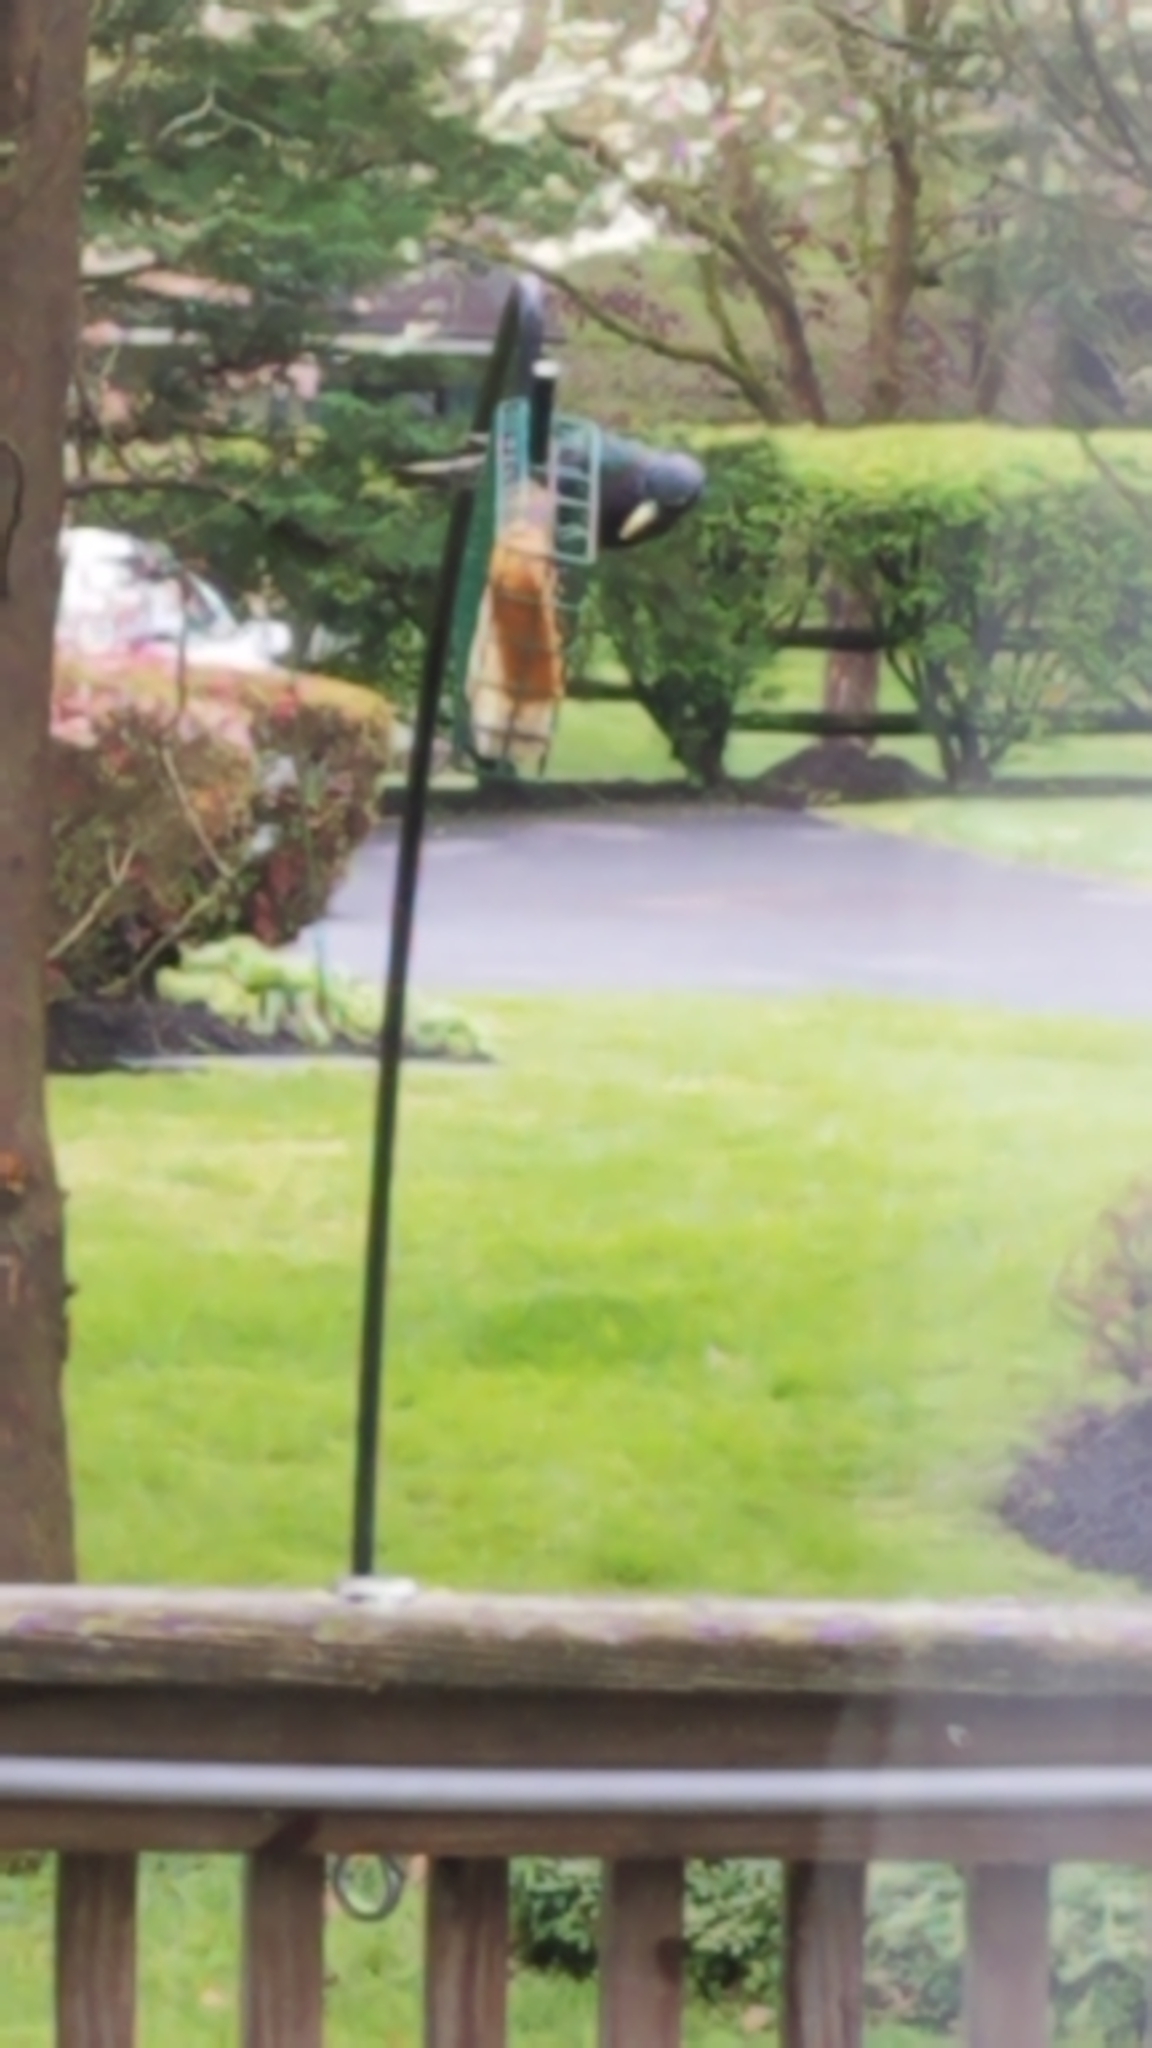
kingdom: Animalia
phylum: Chordata
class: Aves
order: Passeriformes
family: Sturnidae
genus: Sturnus
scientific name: Sturnus vulgaris
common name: Common starling
